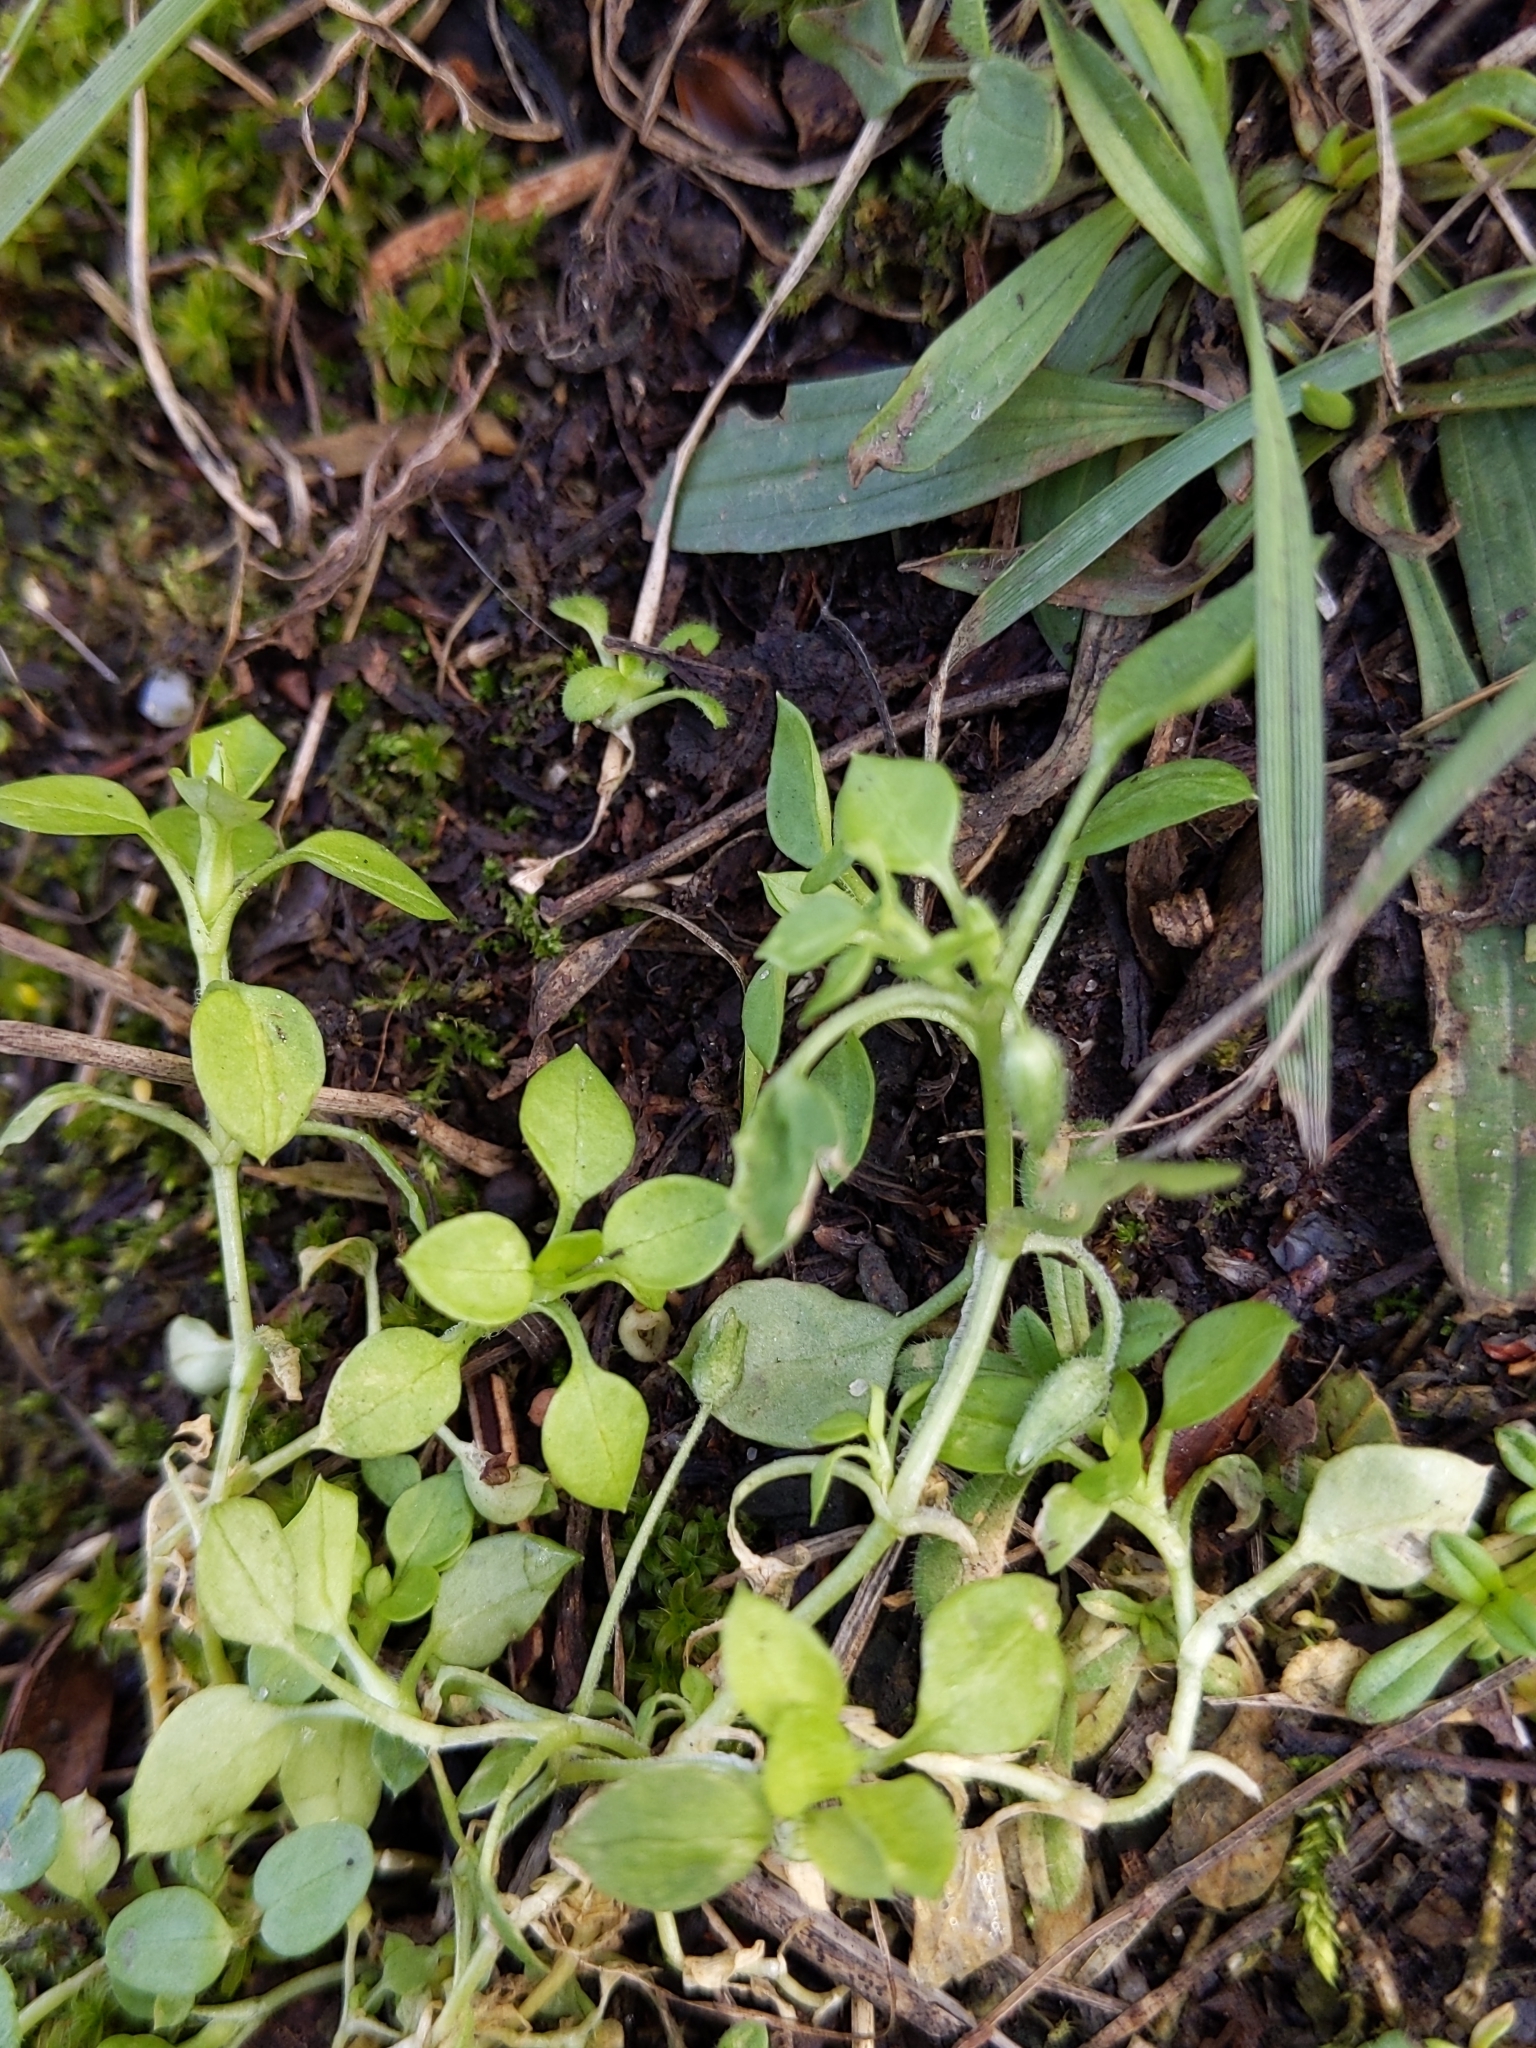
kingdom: Plantae
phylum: Tracheophyta
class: Magnoliopsida
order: Caryophyllales
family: Caryophyllaceae
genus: Stellaria
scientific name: Stellaria media
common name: Common chickweed
